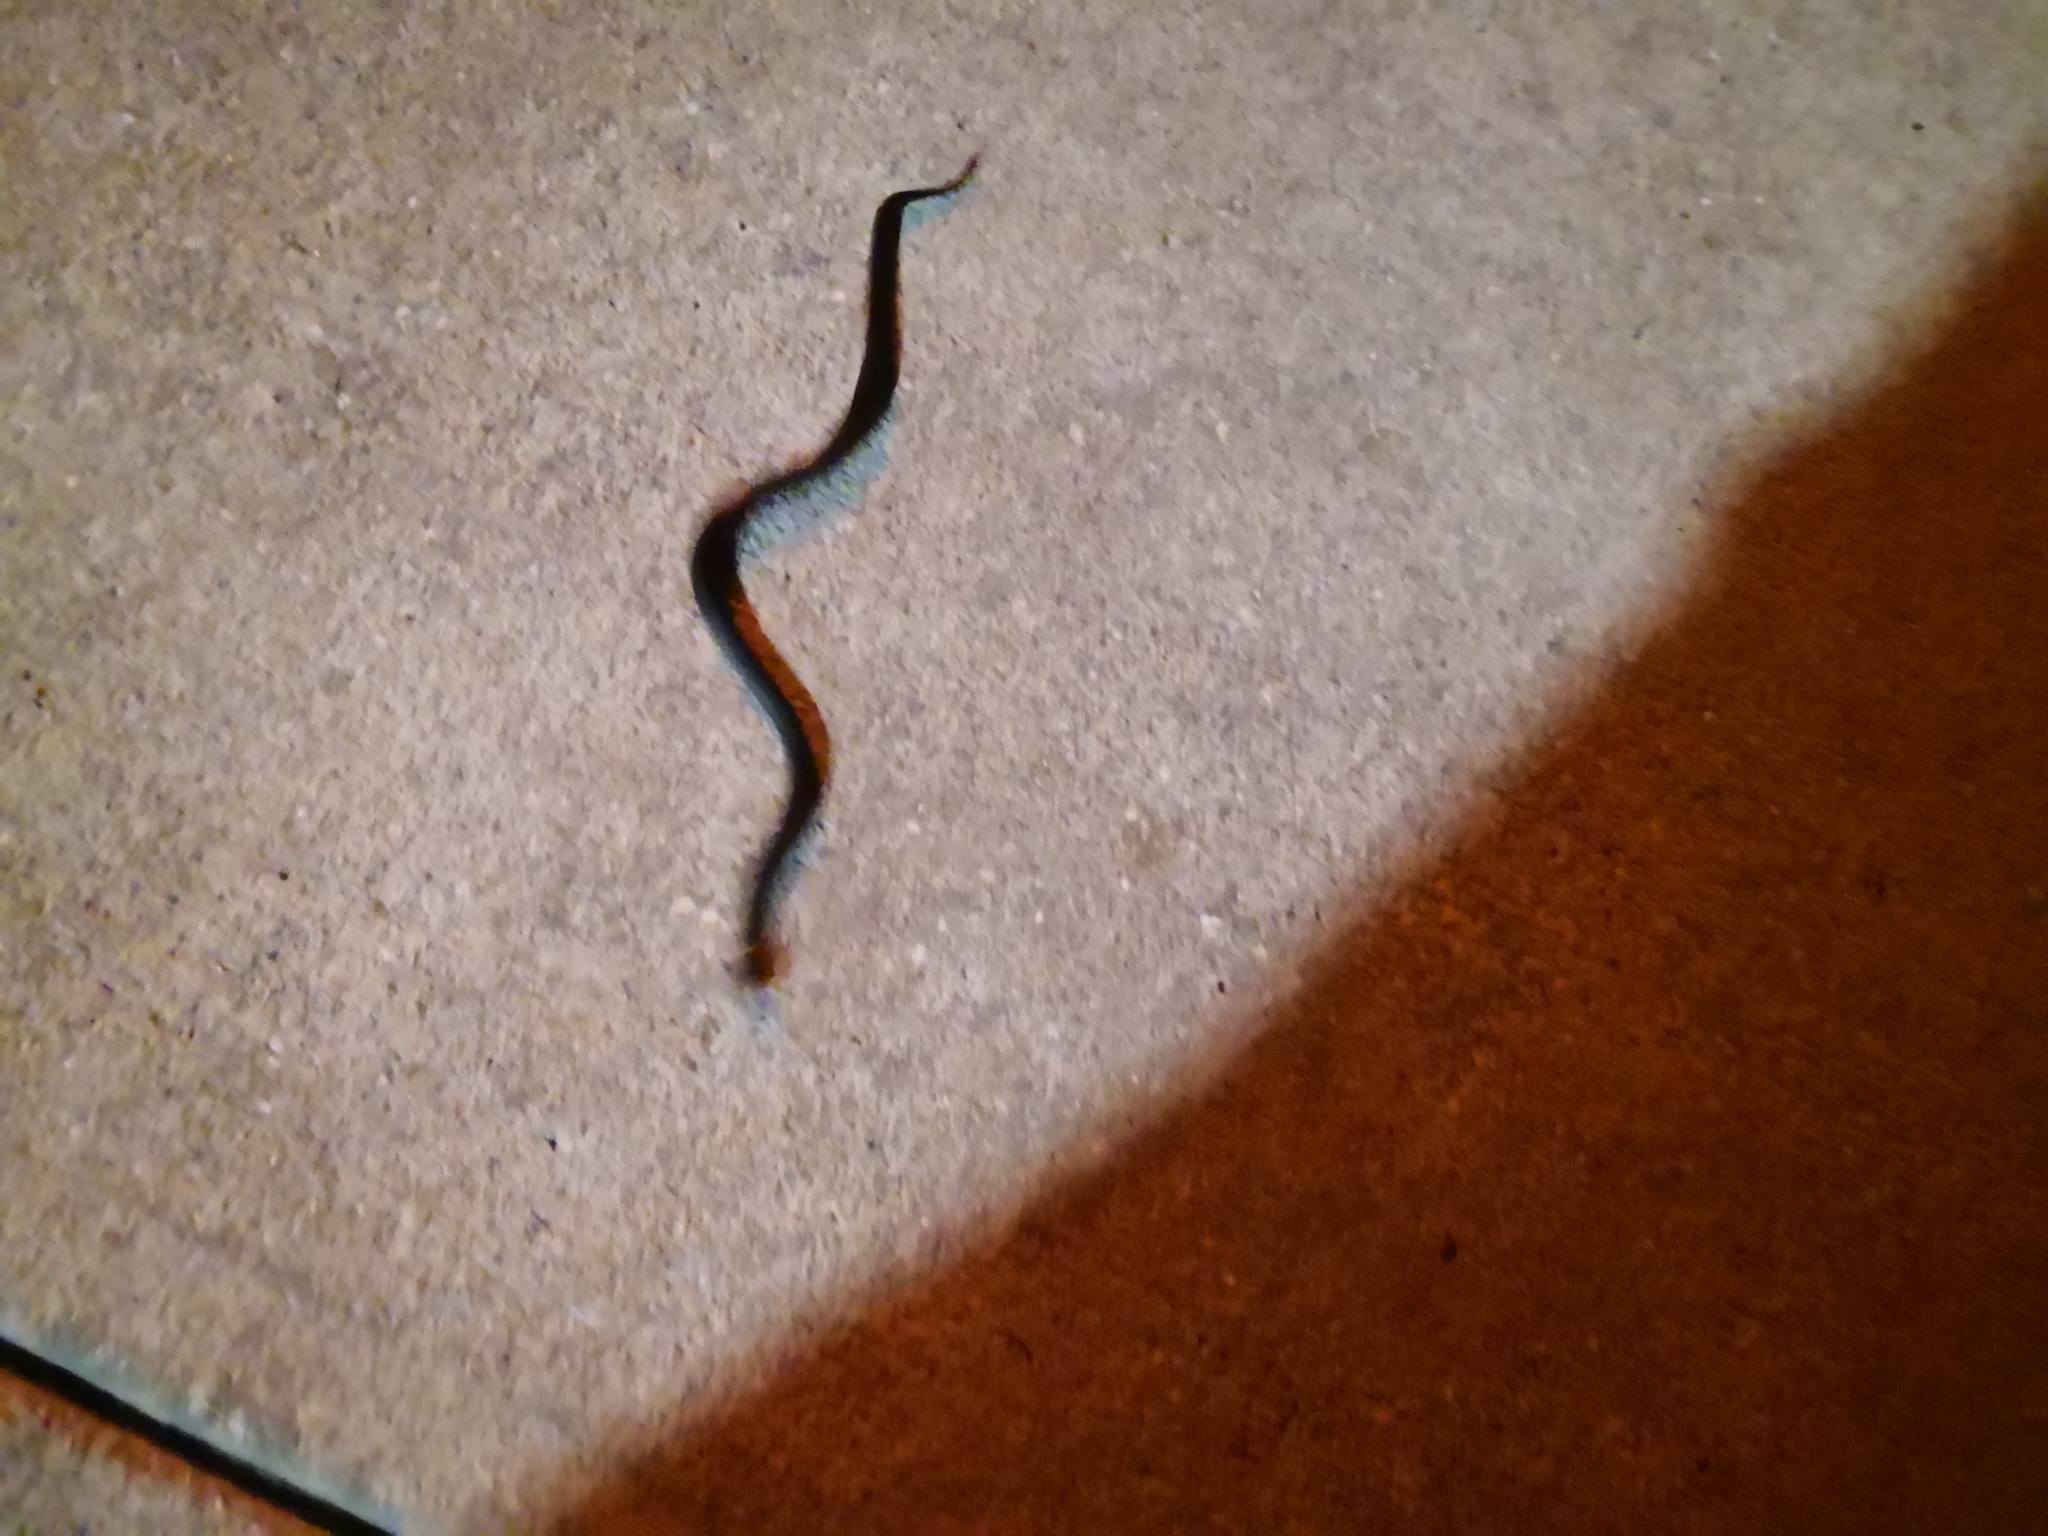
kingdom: Animalia
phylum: Chordata
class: Squamata
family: Colubridae
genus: Diadophis
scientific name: Diadophis punctatus
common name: Ringneck snake
